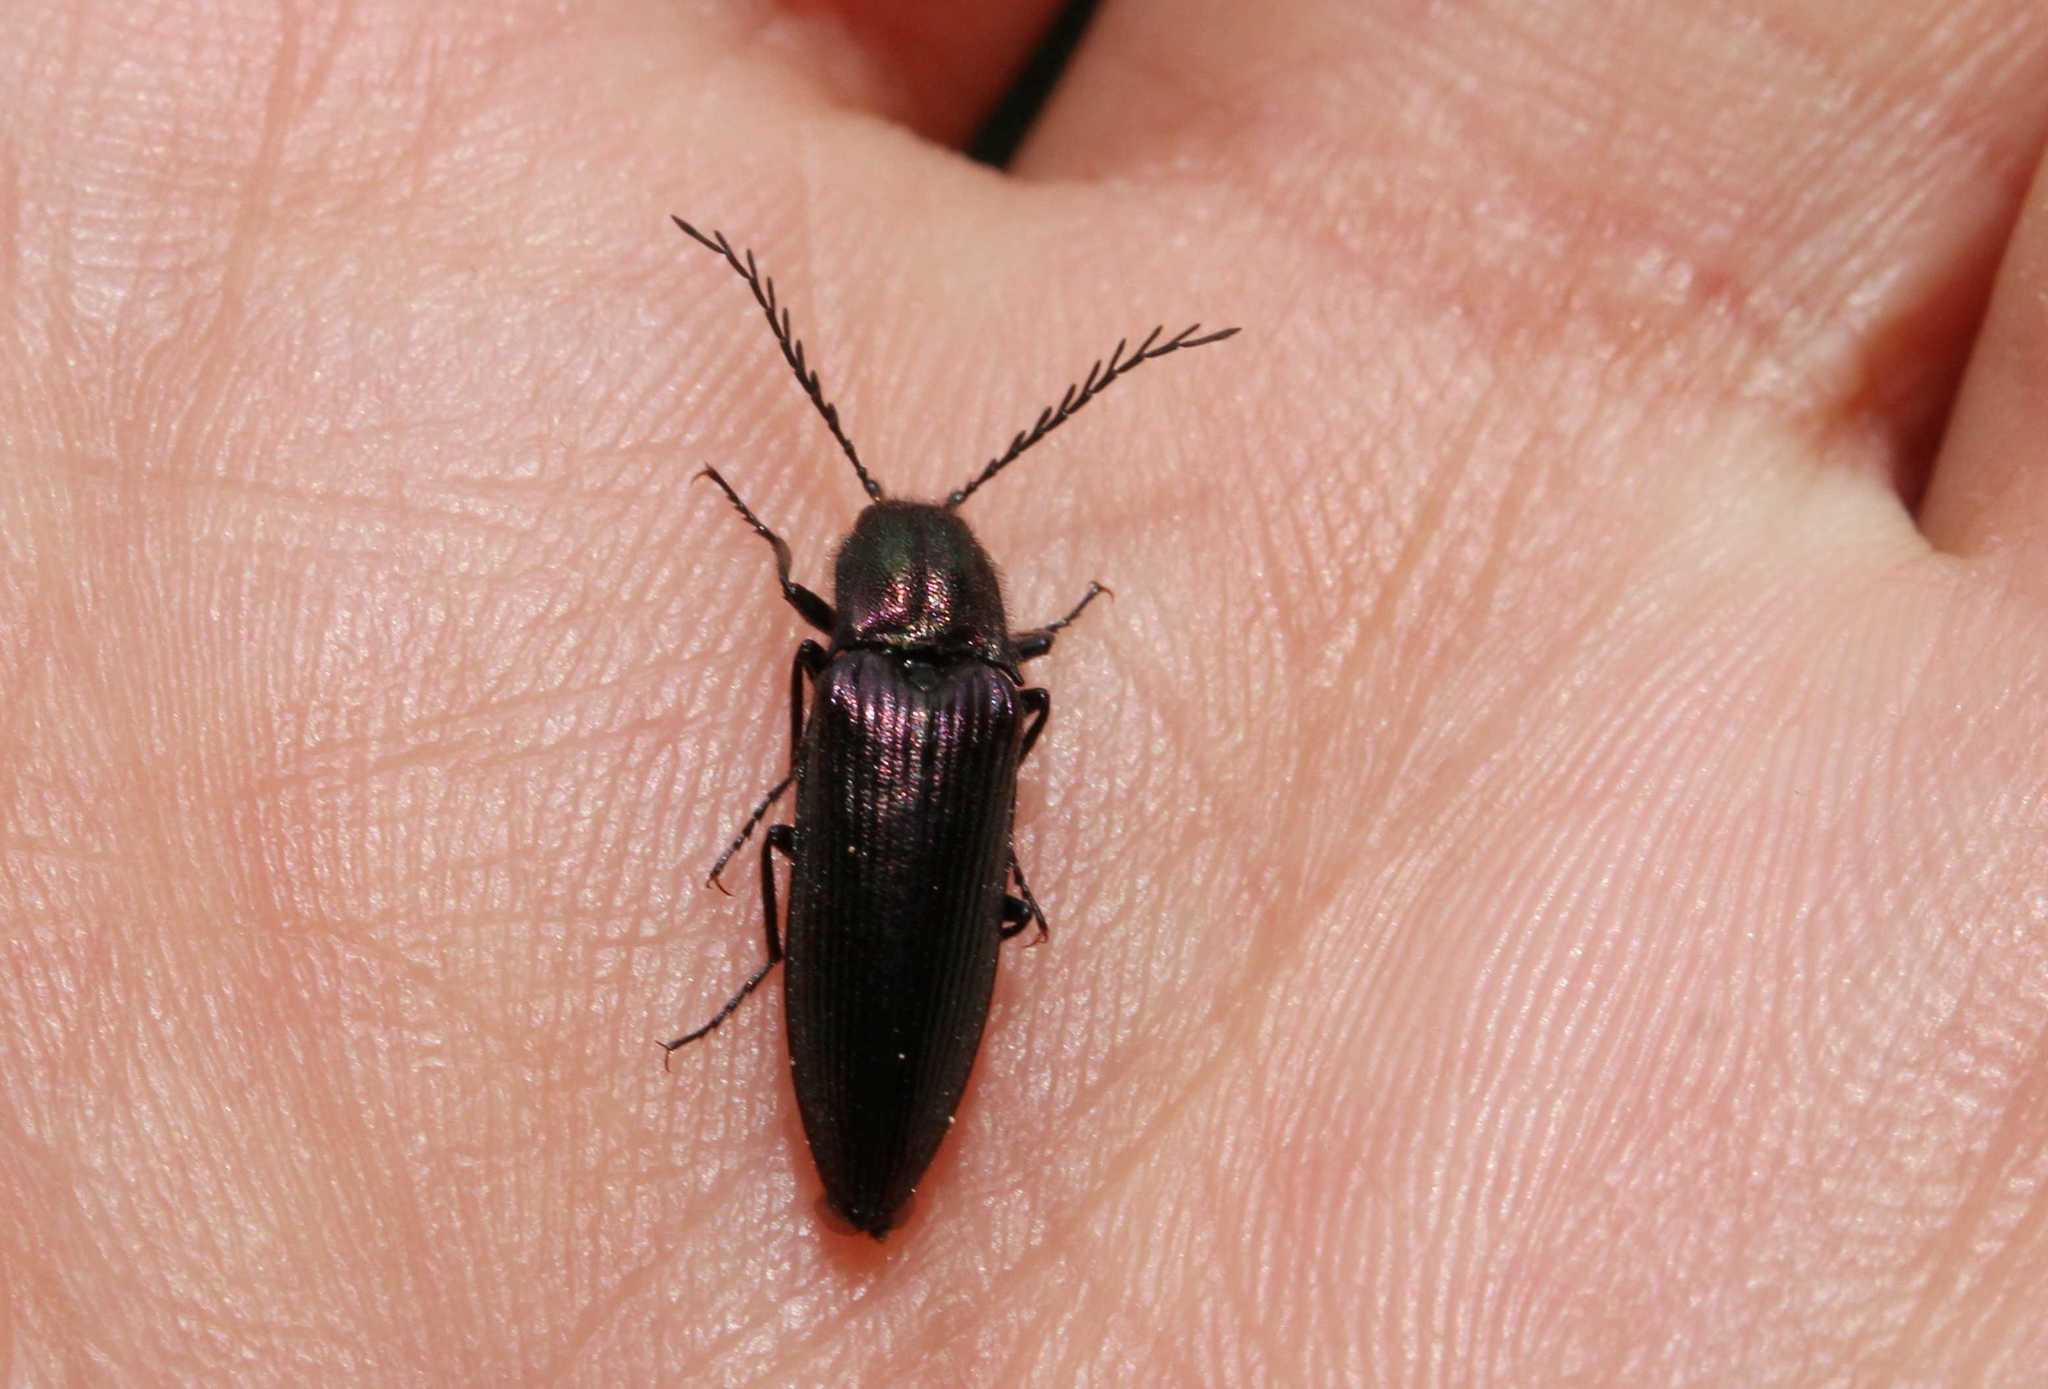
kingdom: Animalia
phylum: Arthropoda
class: Insecta
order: Coleoptera
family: Elateridae
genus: Ctenicera
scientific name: Ctenicera cuprea
